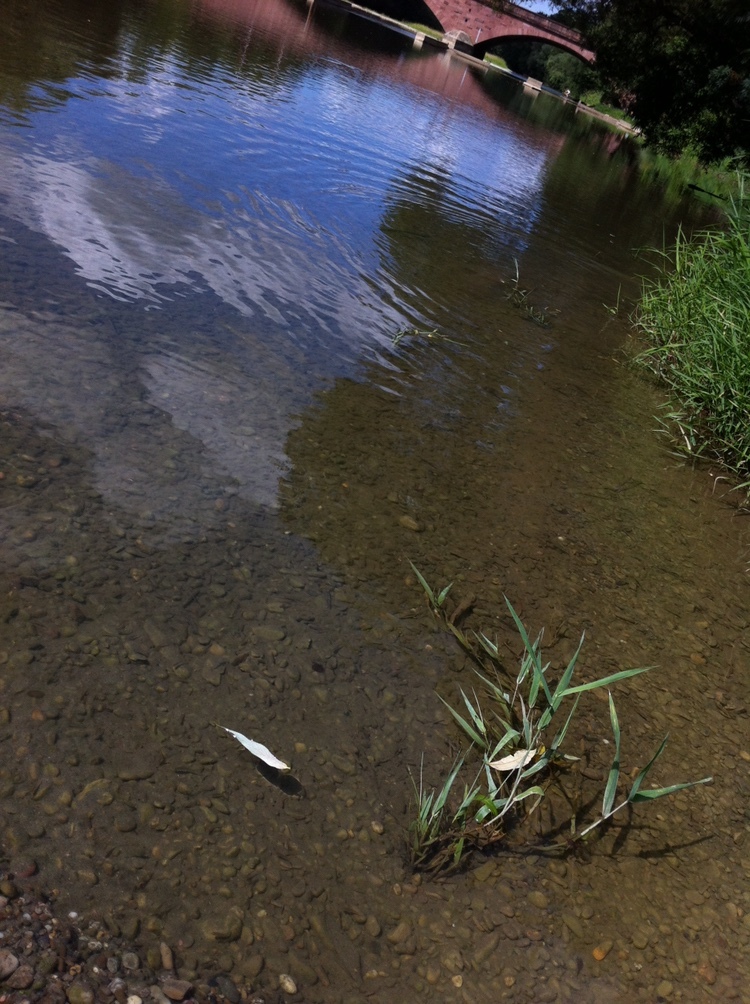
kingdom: Plantae
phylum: Tracheophyta
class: Liliopsida
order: Poales
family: Poaceae
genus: Phragmites
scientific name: Phragmites australis
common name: Common reed
